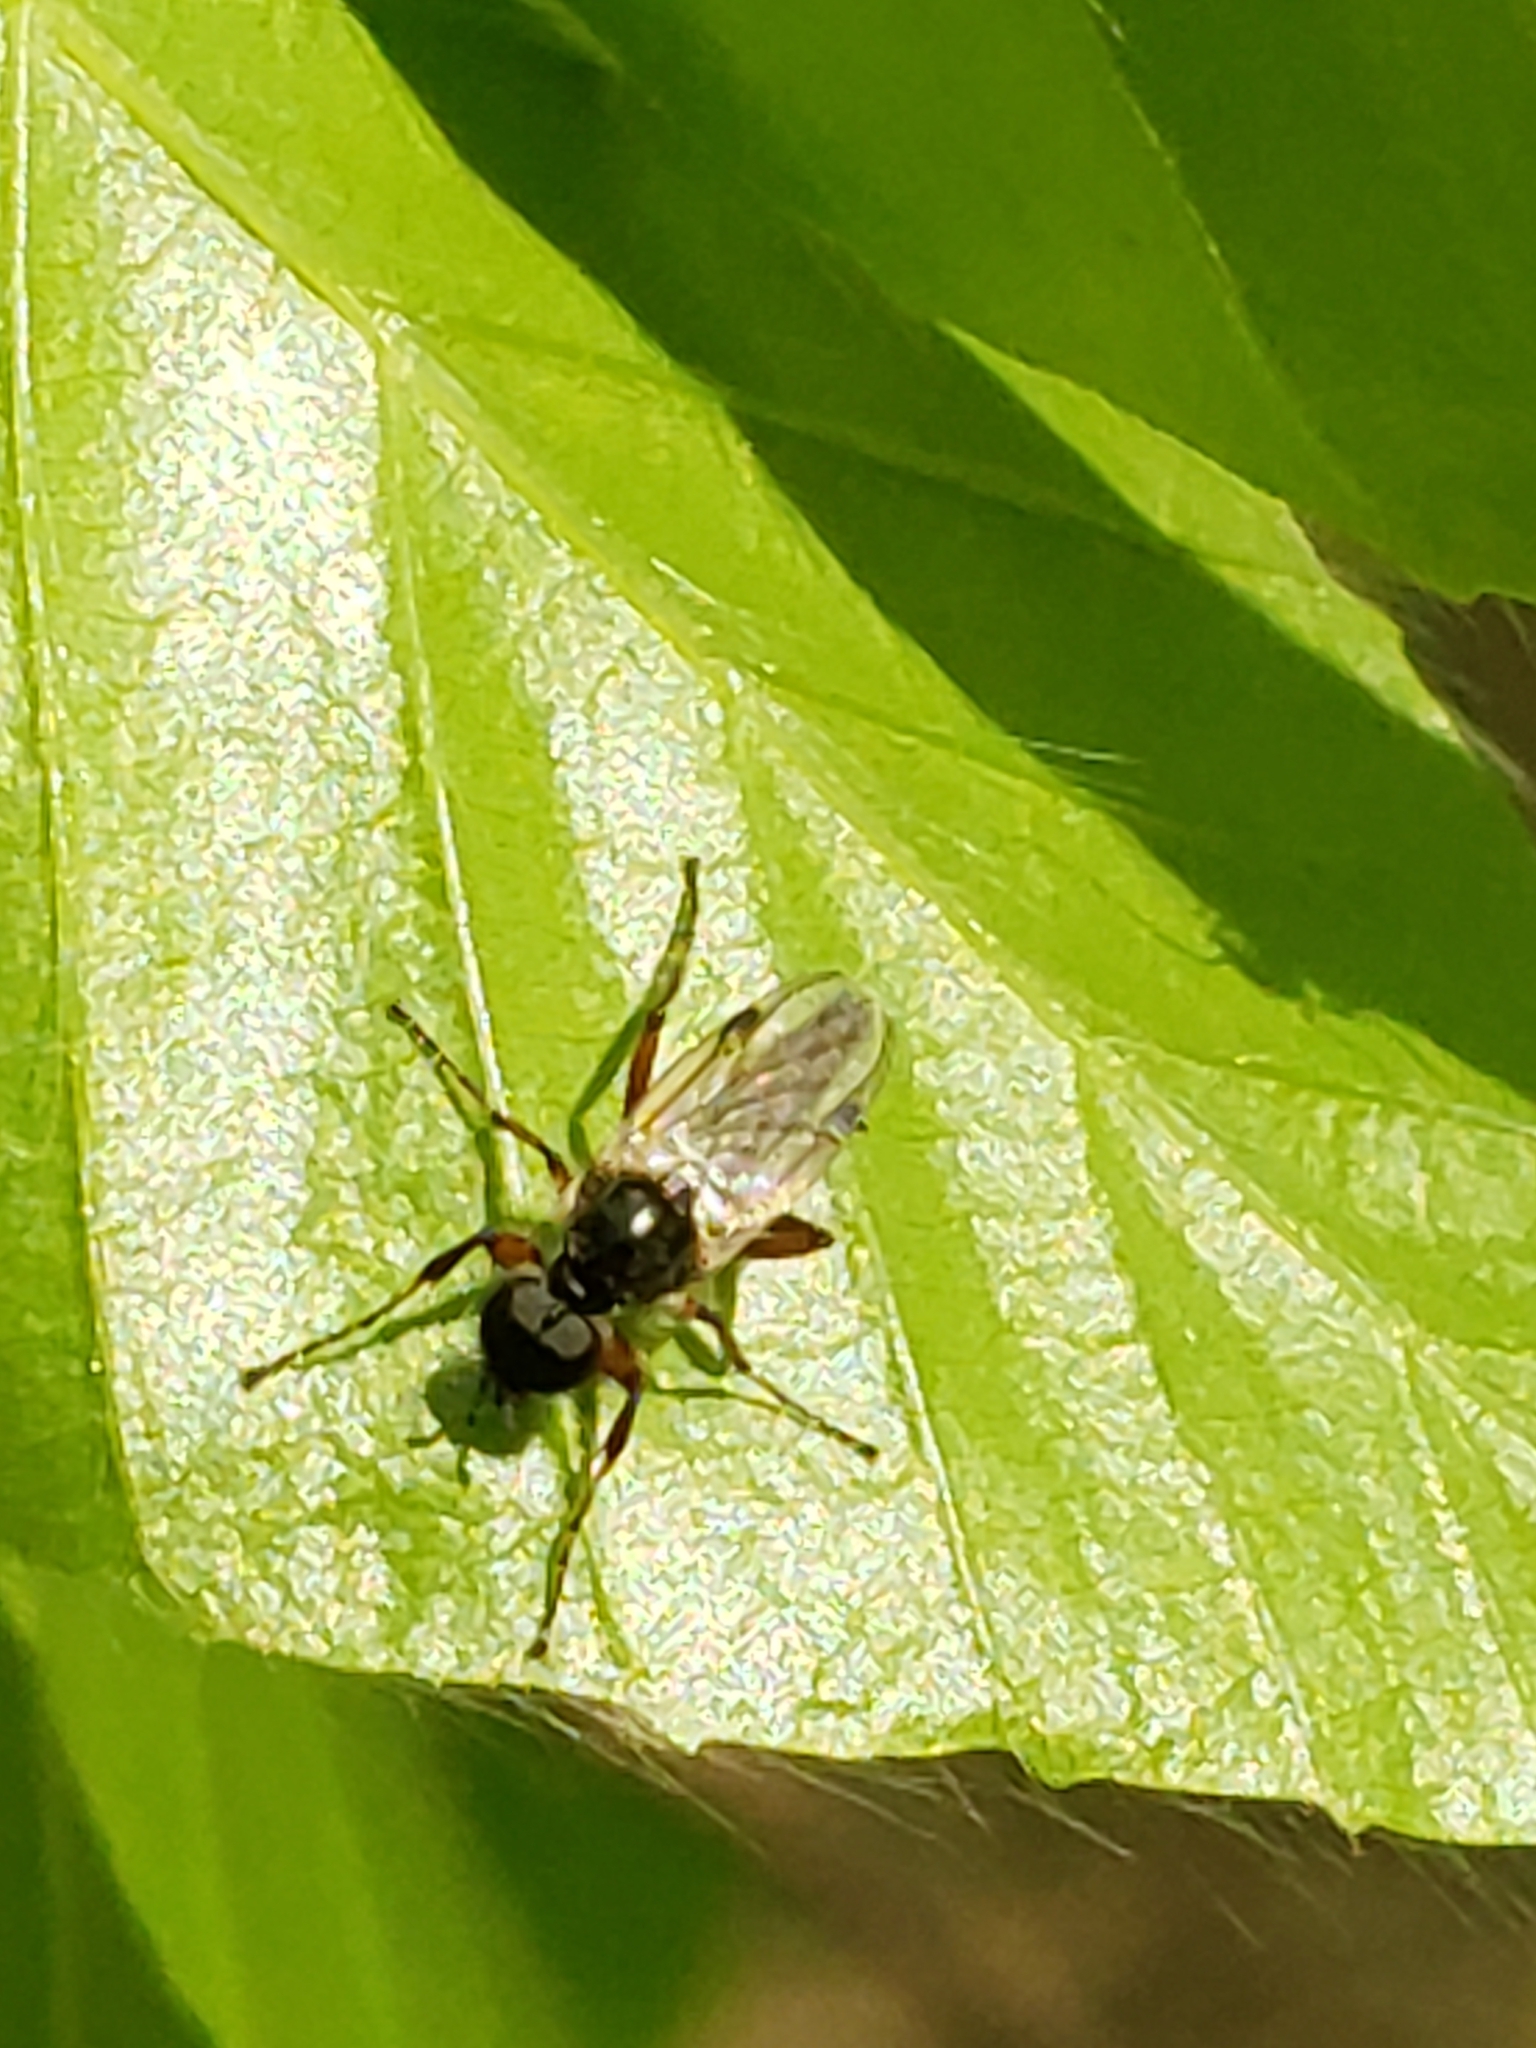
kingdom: Animalia
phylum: Arthropoda
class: Insecta
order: Diptera
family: Bibionidae
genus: Bibio
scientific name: Bibio
